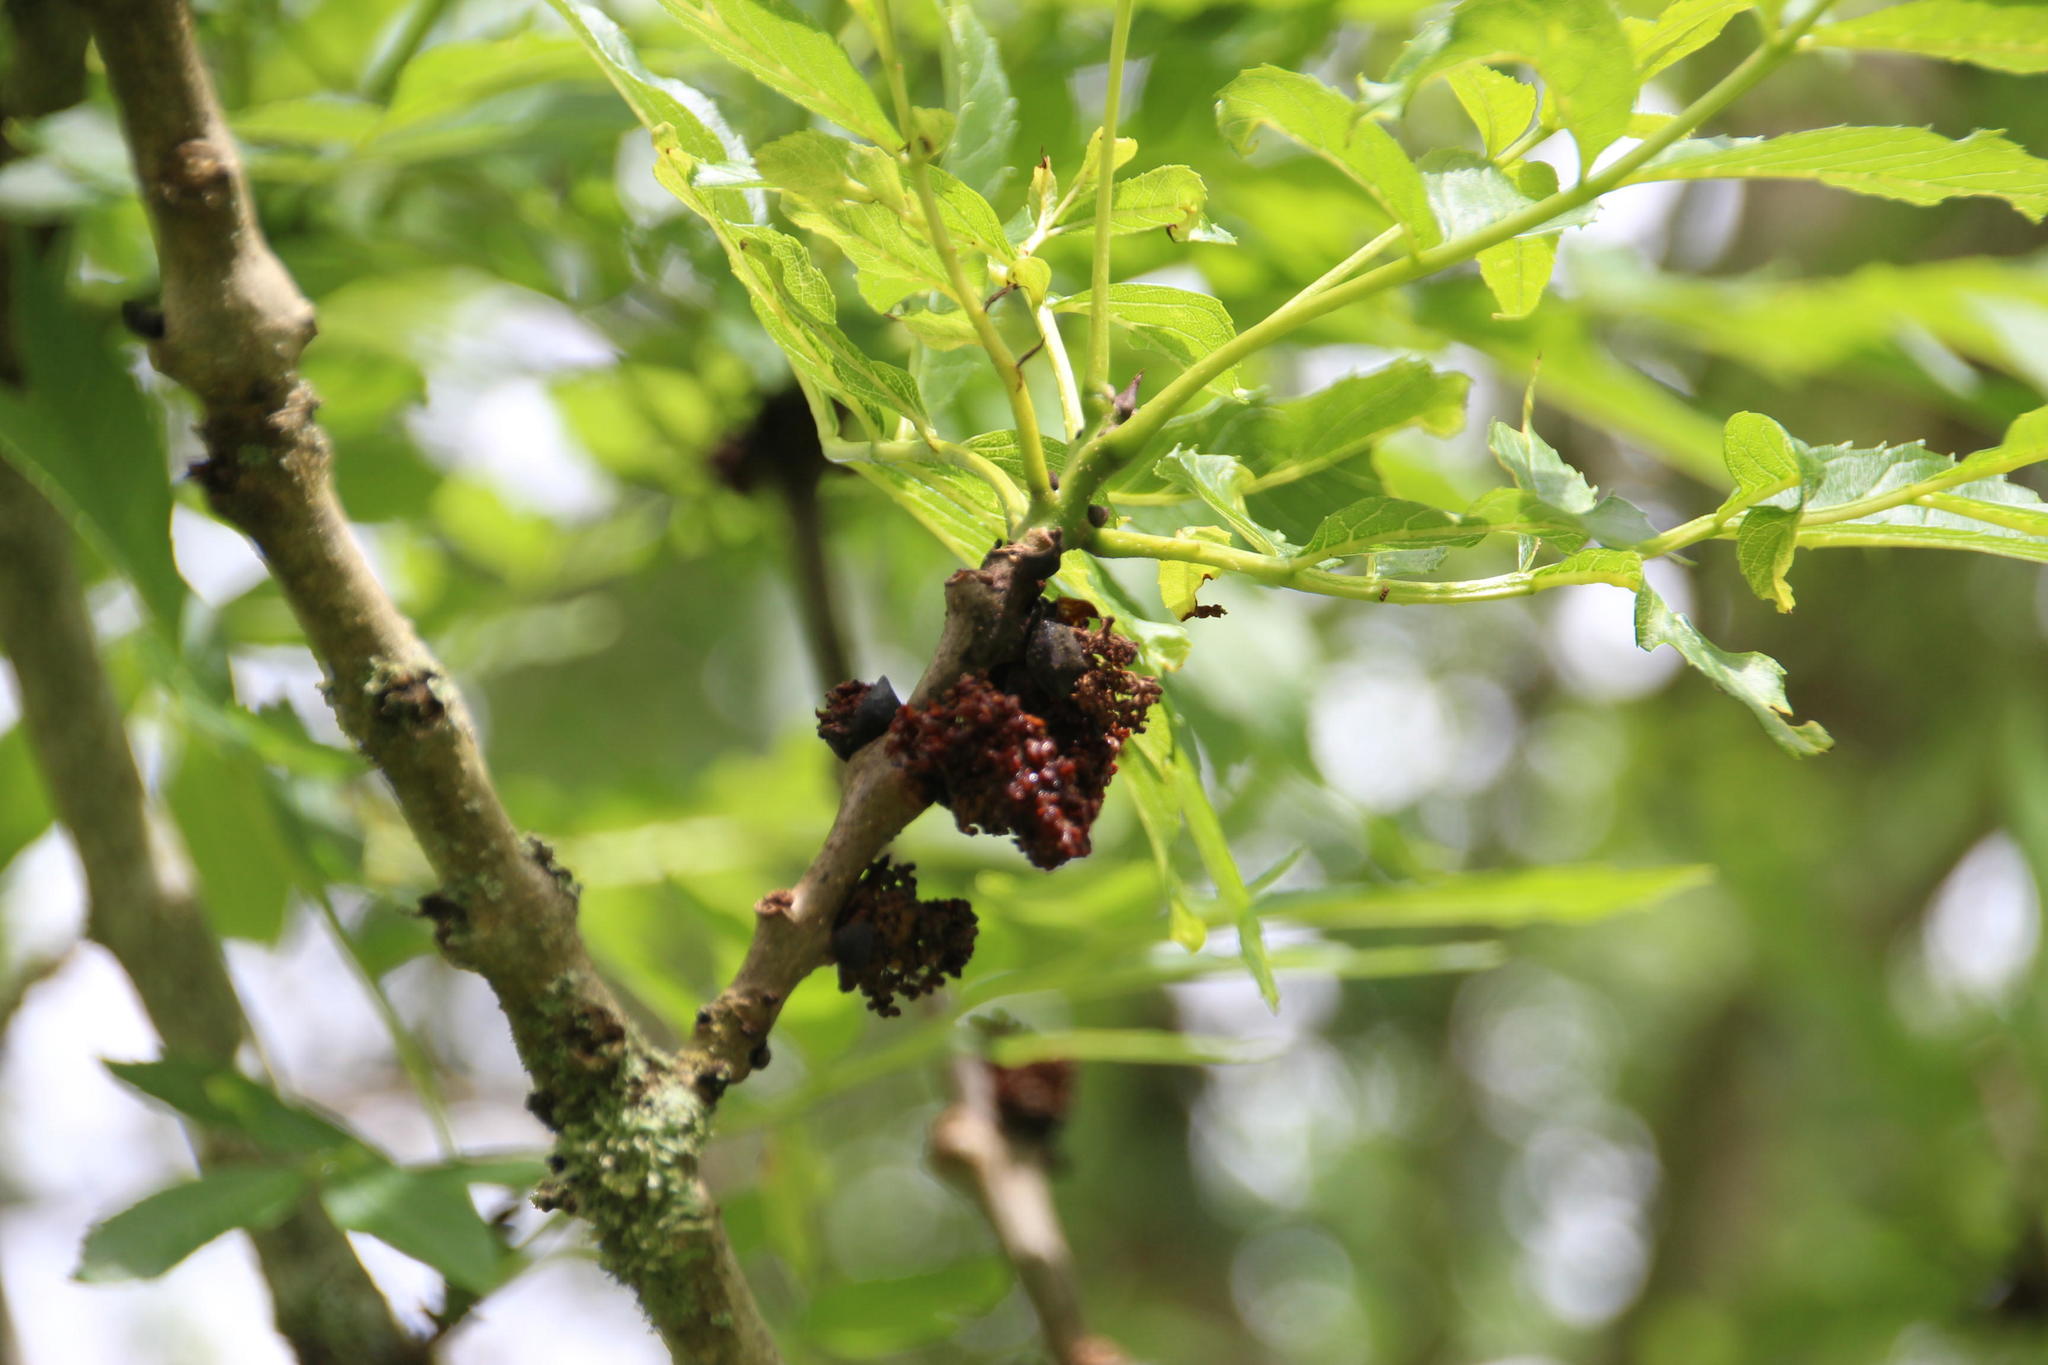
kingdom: Plantae
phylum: Tracheophyta
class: Magnoliopsida
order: Lamiales
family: Oleaceae
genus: Fraxinus
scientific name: Fraxinus excelsior
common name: European ash
